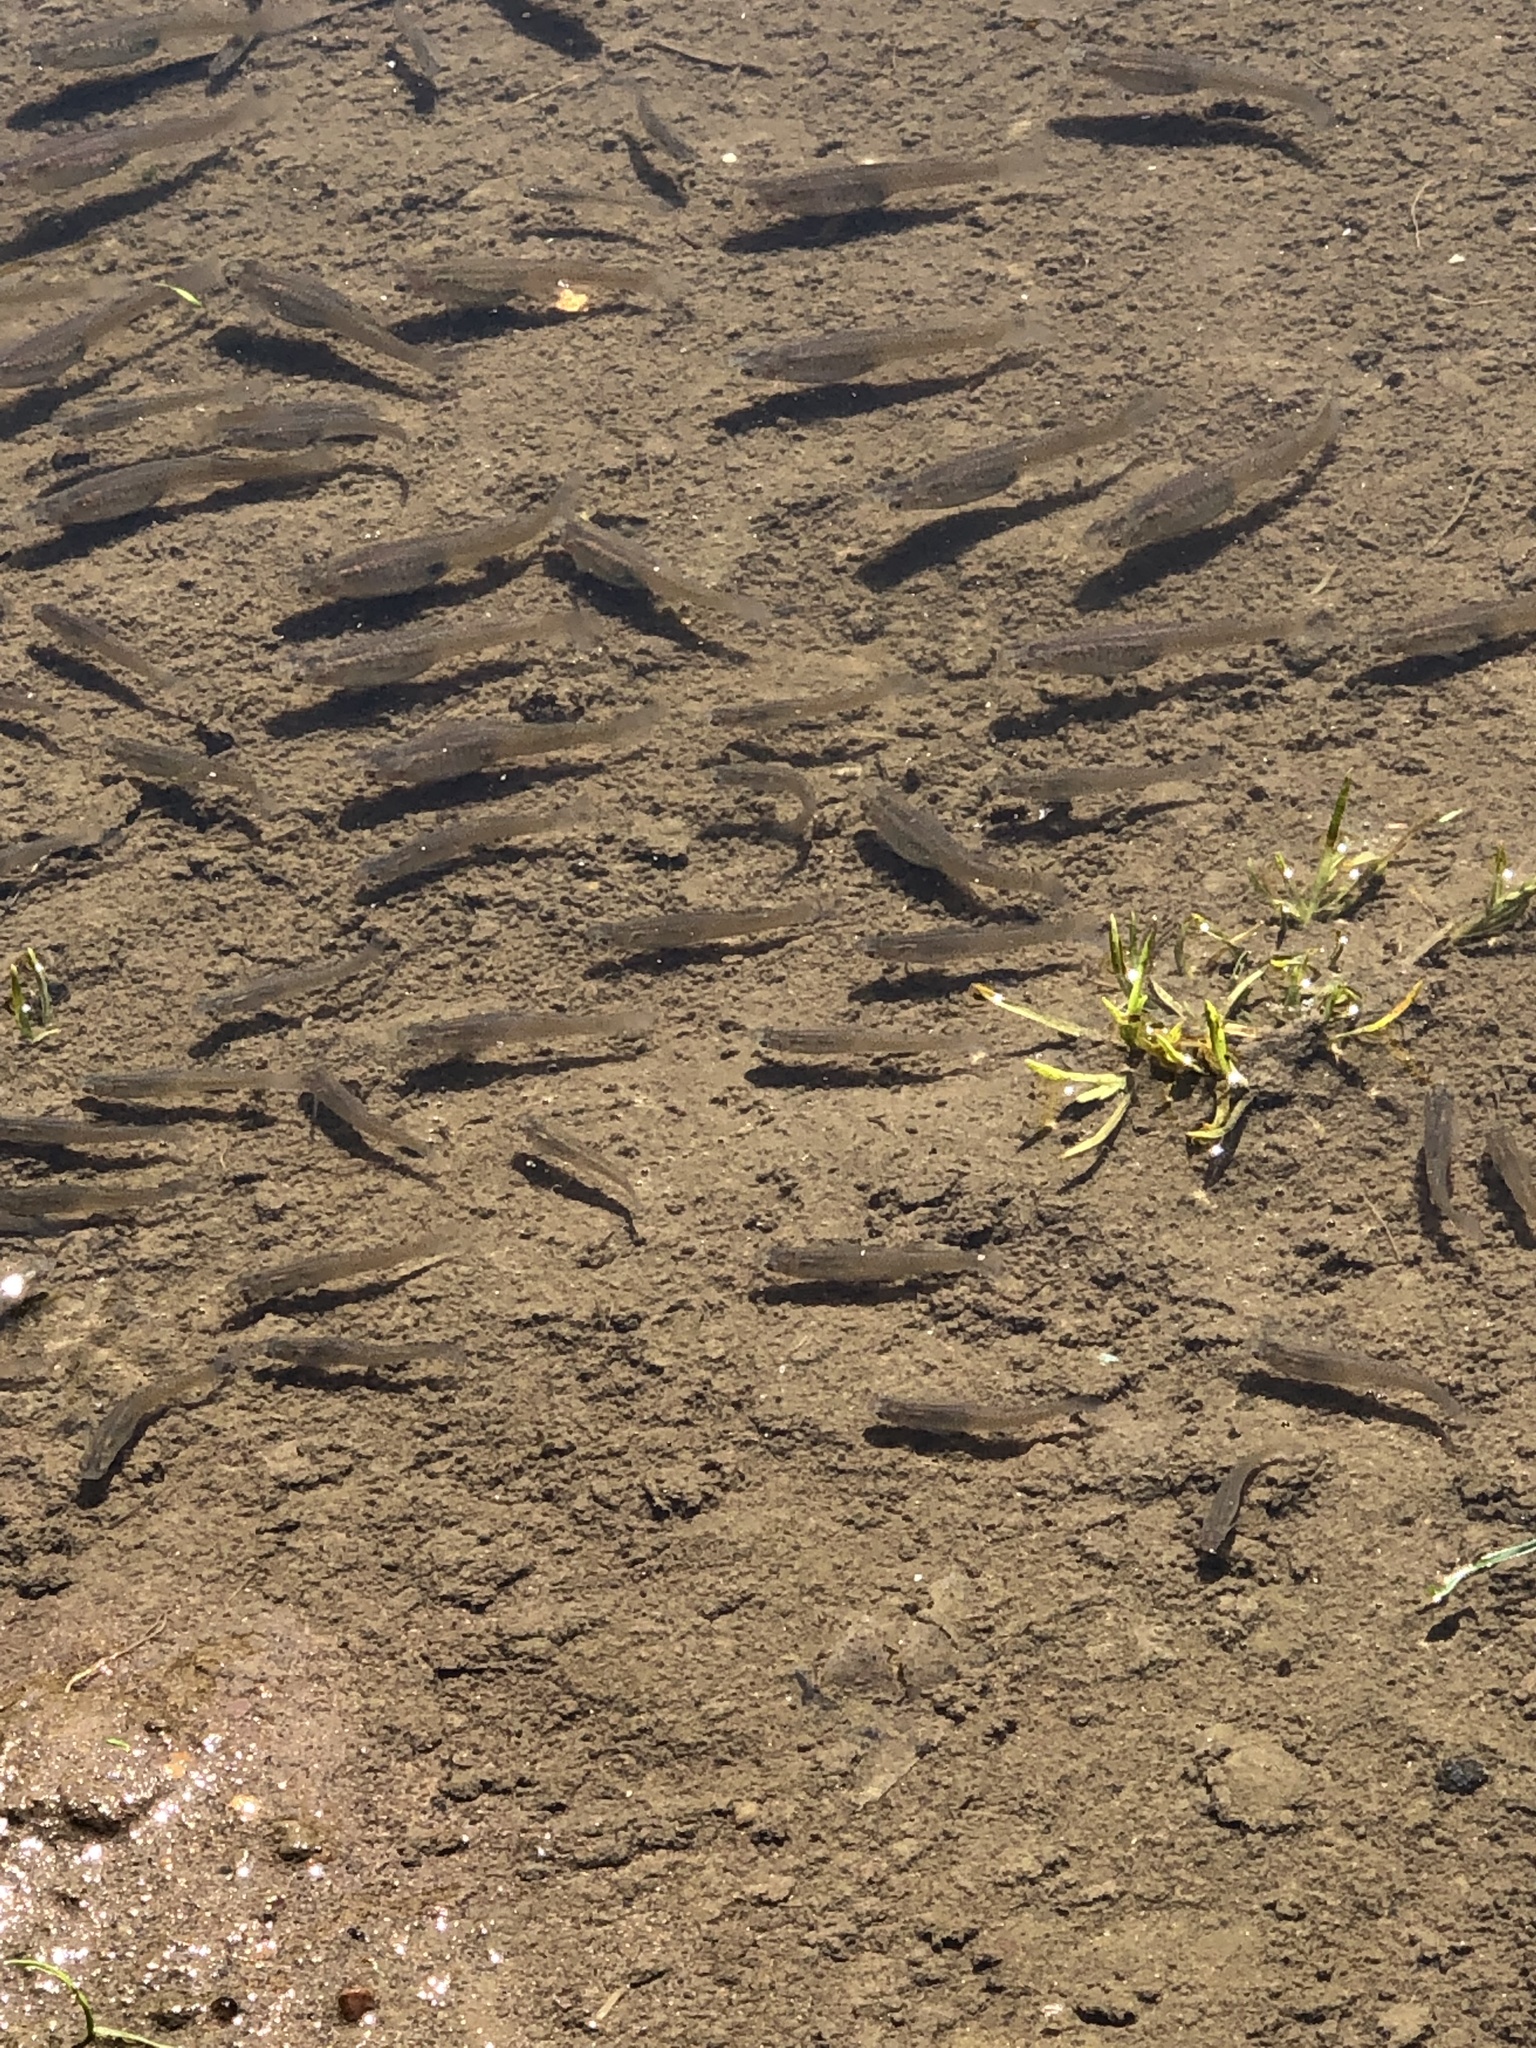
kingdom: Animalia
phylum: Chordata
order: Cyprinodontiformes
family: Poeciliidae
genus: Gambusia
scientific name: Gambusia affinis
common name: Mosquitofish
